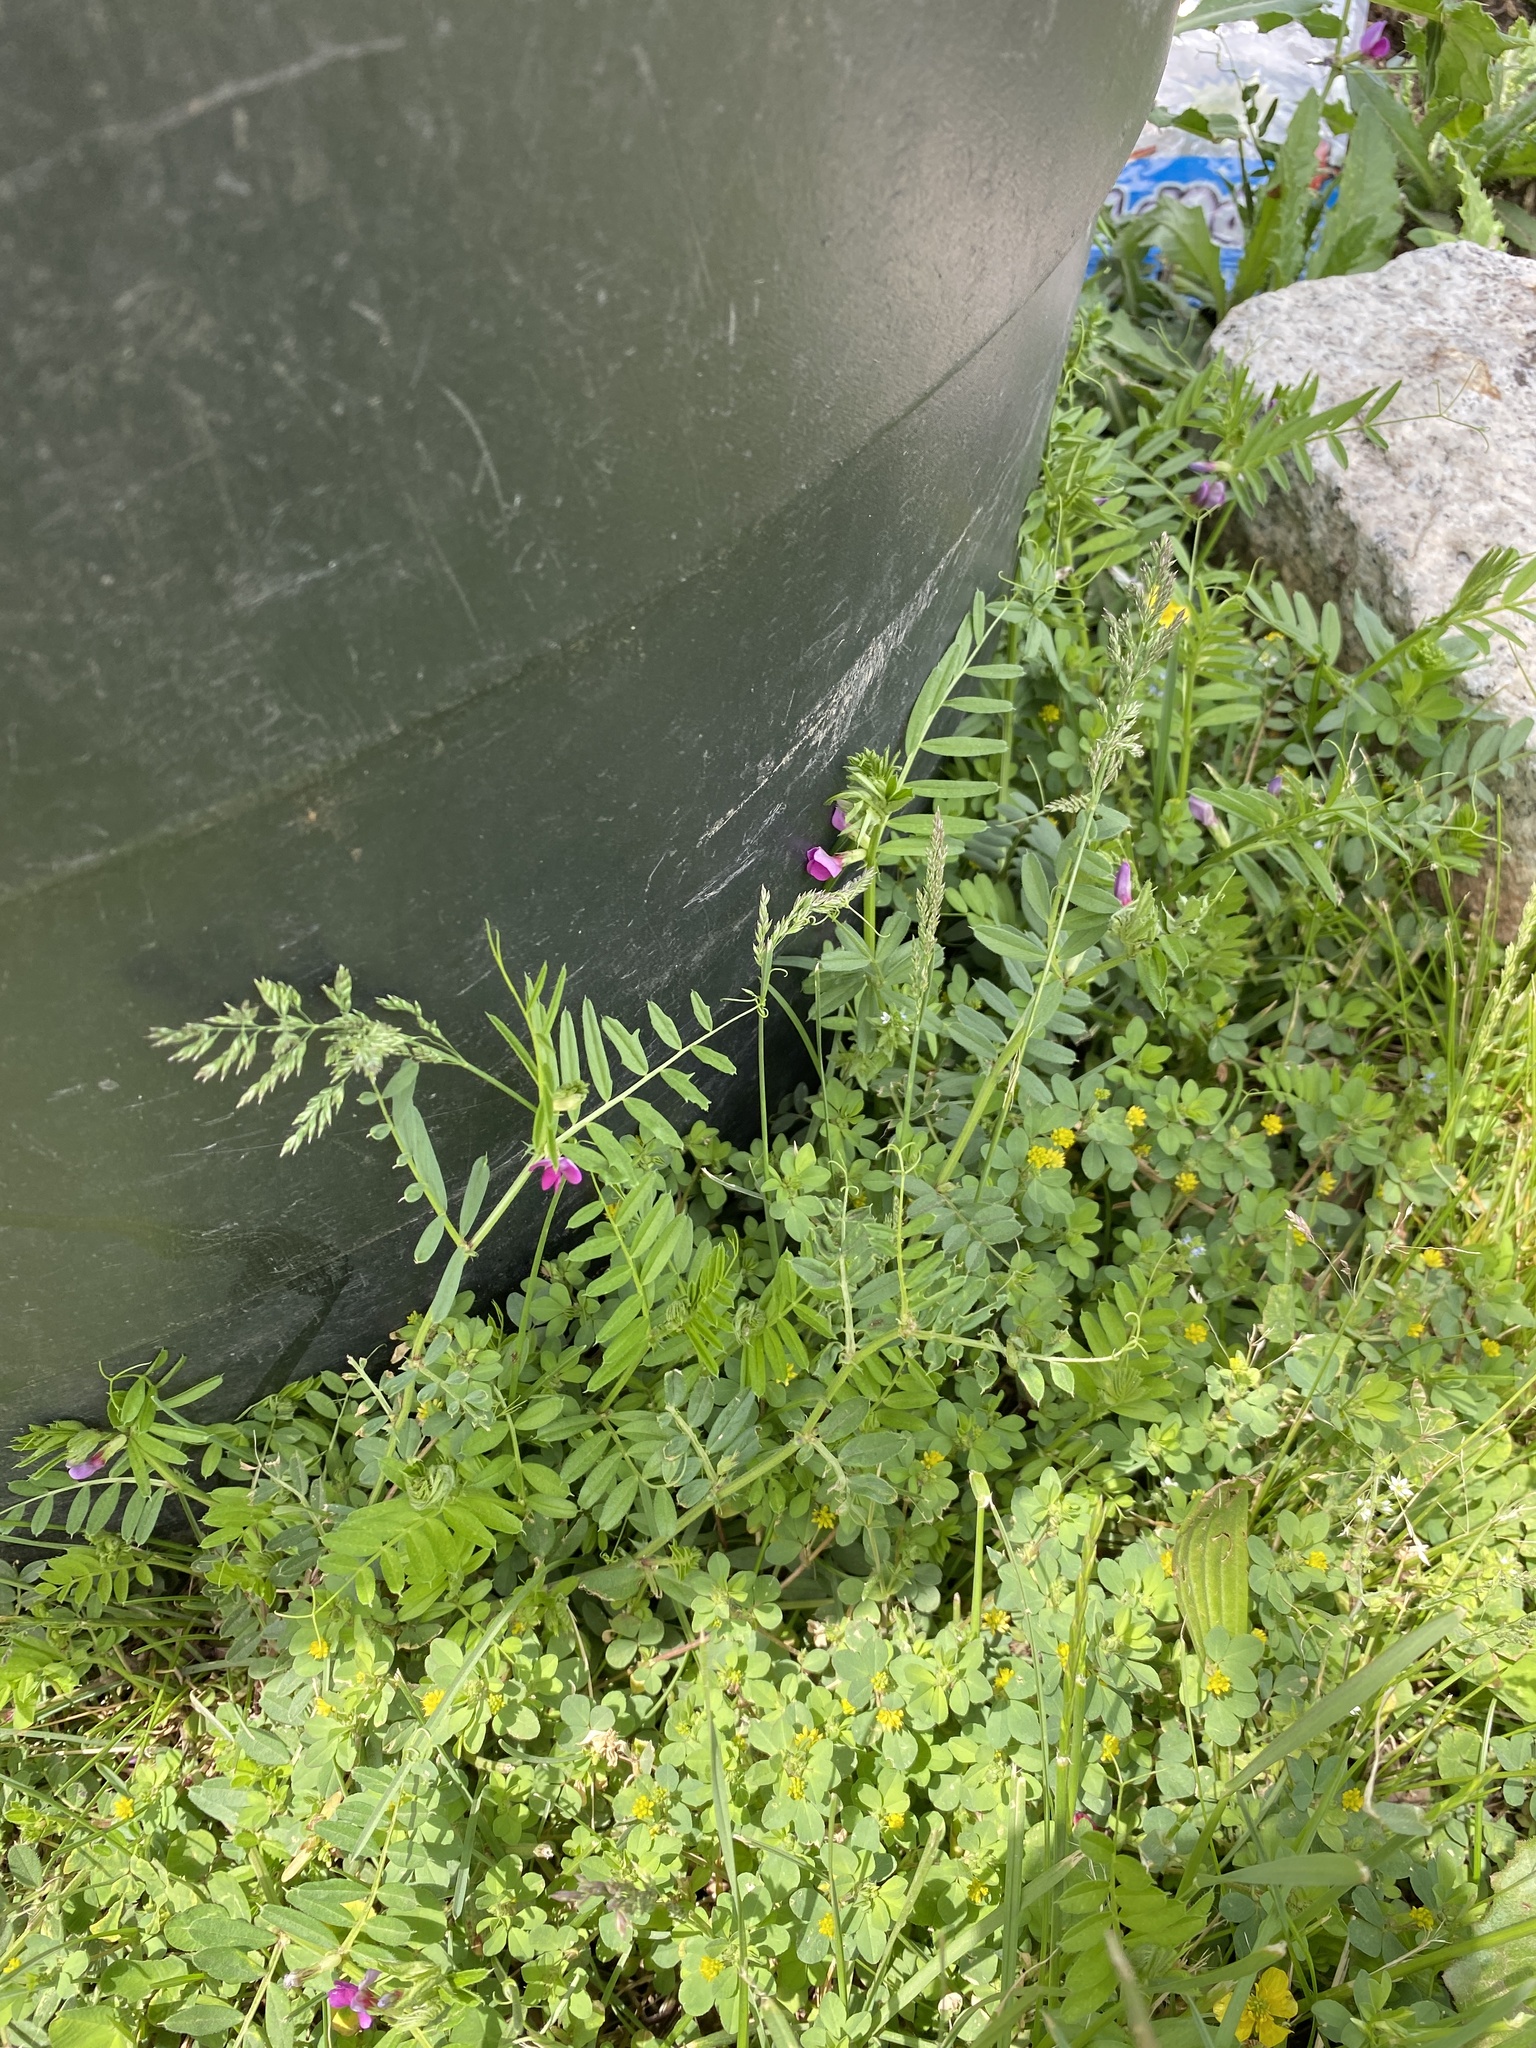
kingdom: Plantae
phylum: Tracheophyta
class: Magnoliopsida
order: Fabales
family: Fabaceae
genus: Vicia
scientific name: Vicia sativa
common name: Garden vetch
